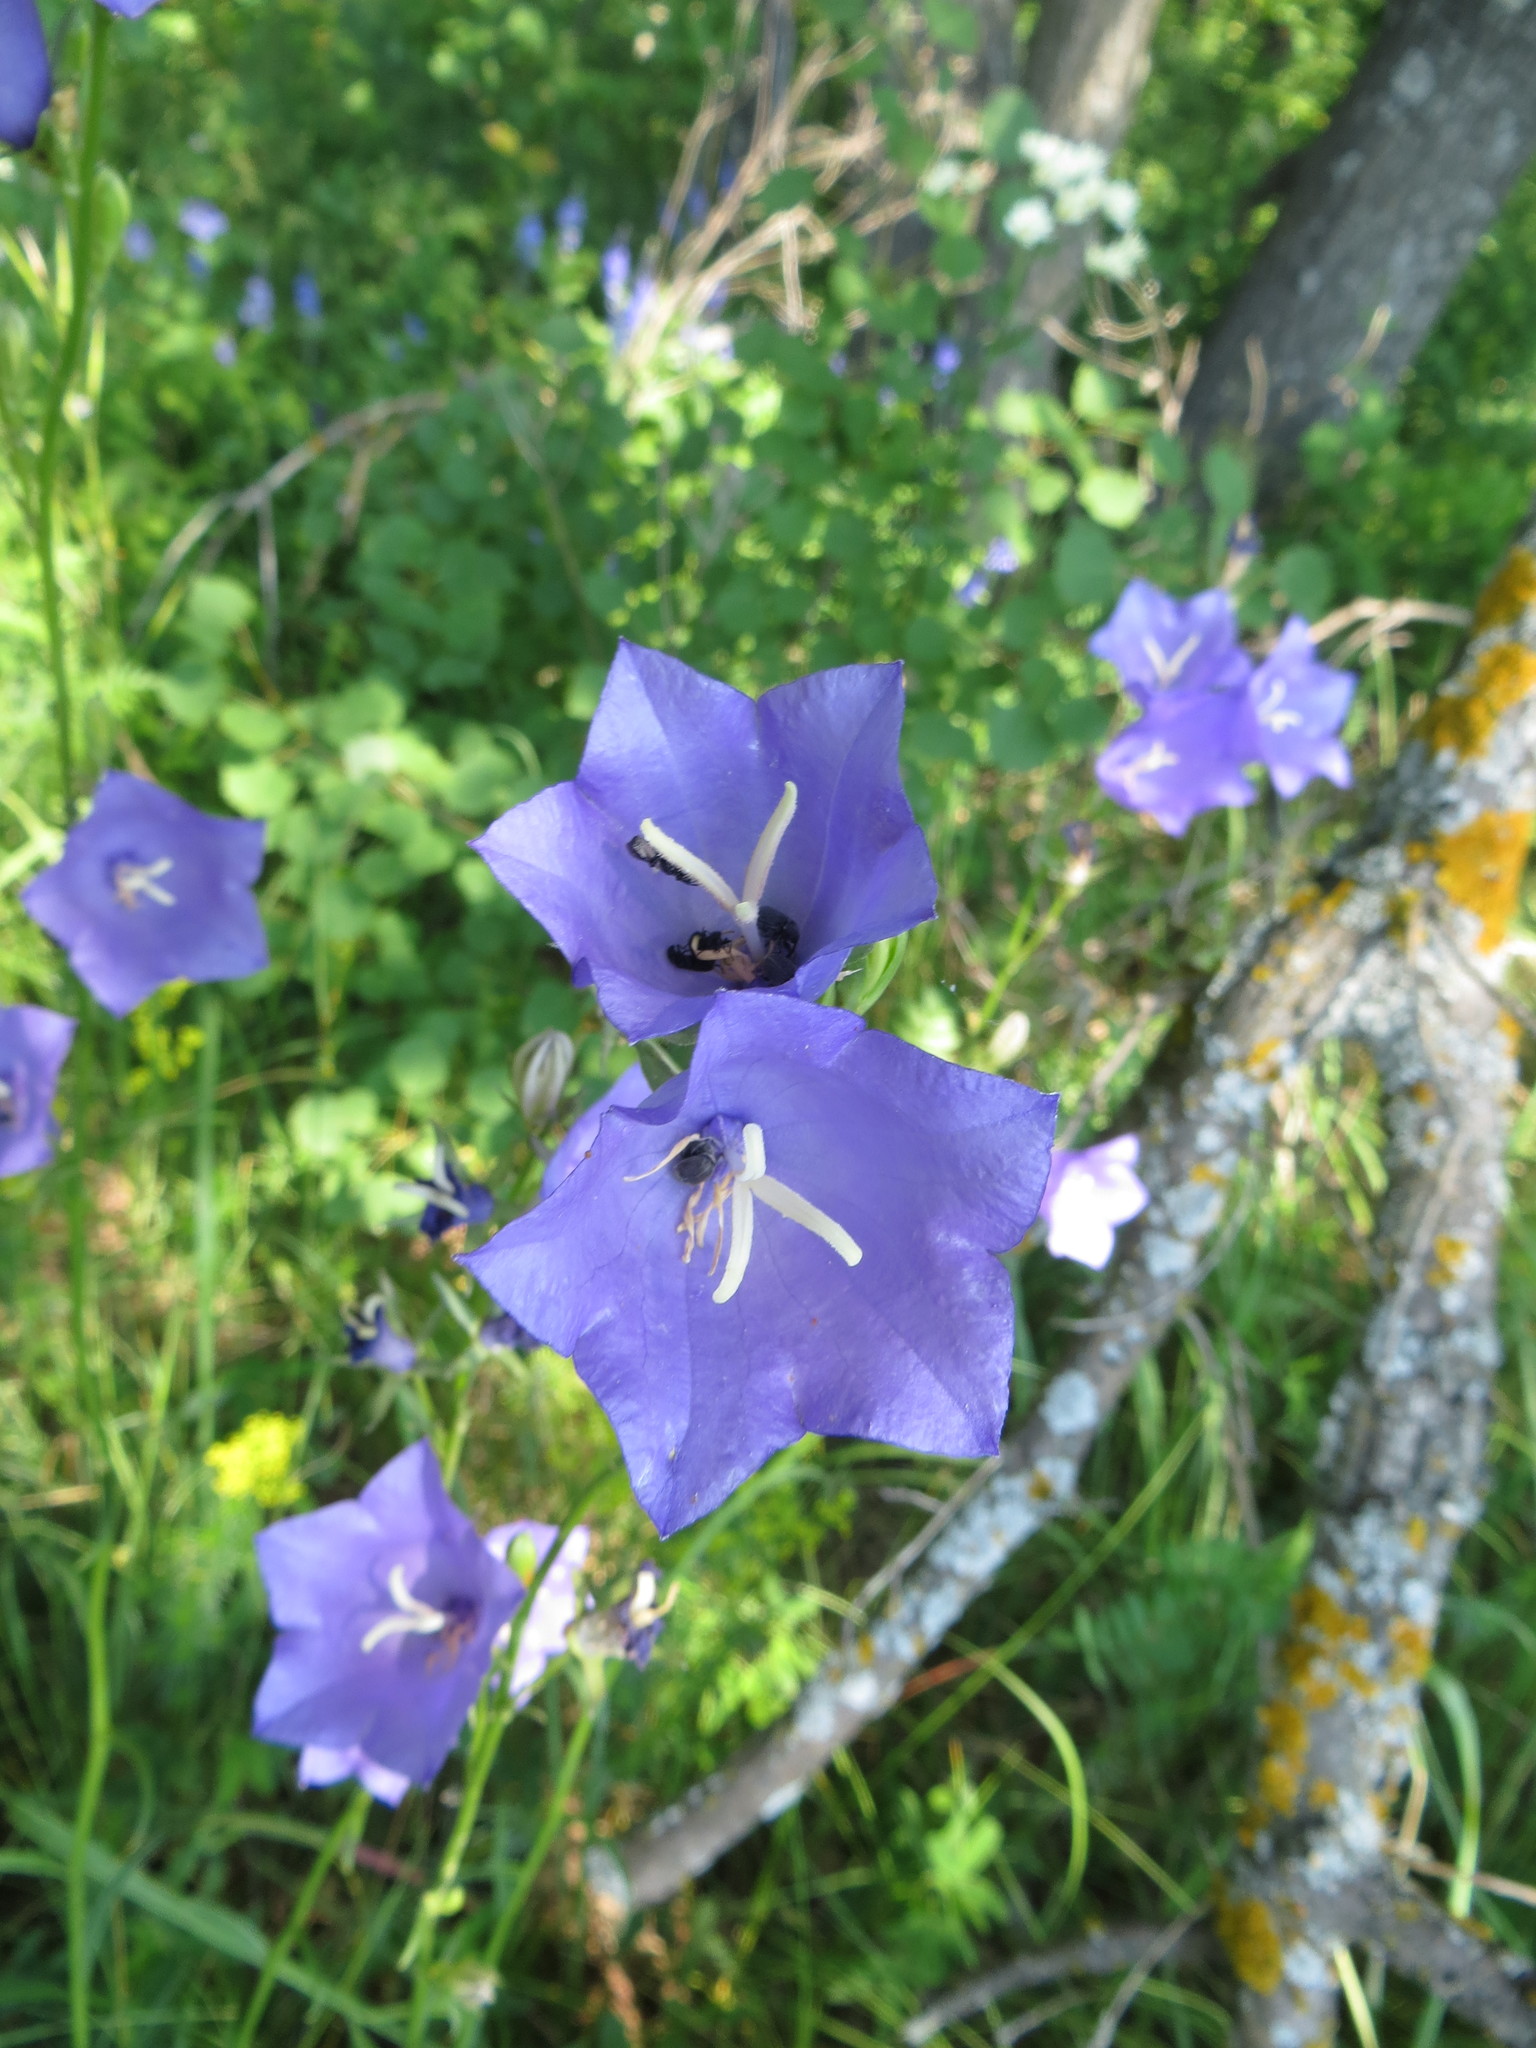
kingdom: Plantae
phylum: Tracheophyta
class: Magnoliopsida
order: Asterales
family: Campanulaceae
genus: Campanula
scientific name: Campanula persicifolia
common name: Peach-leaved bellflower
